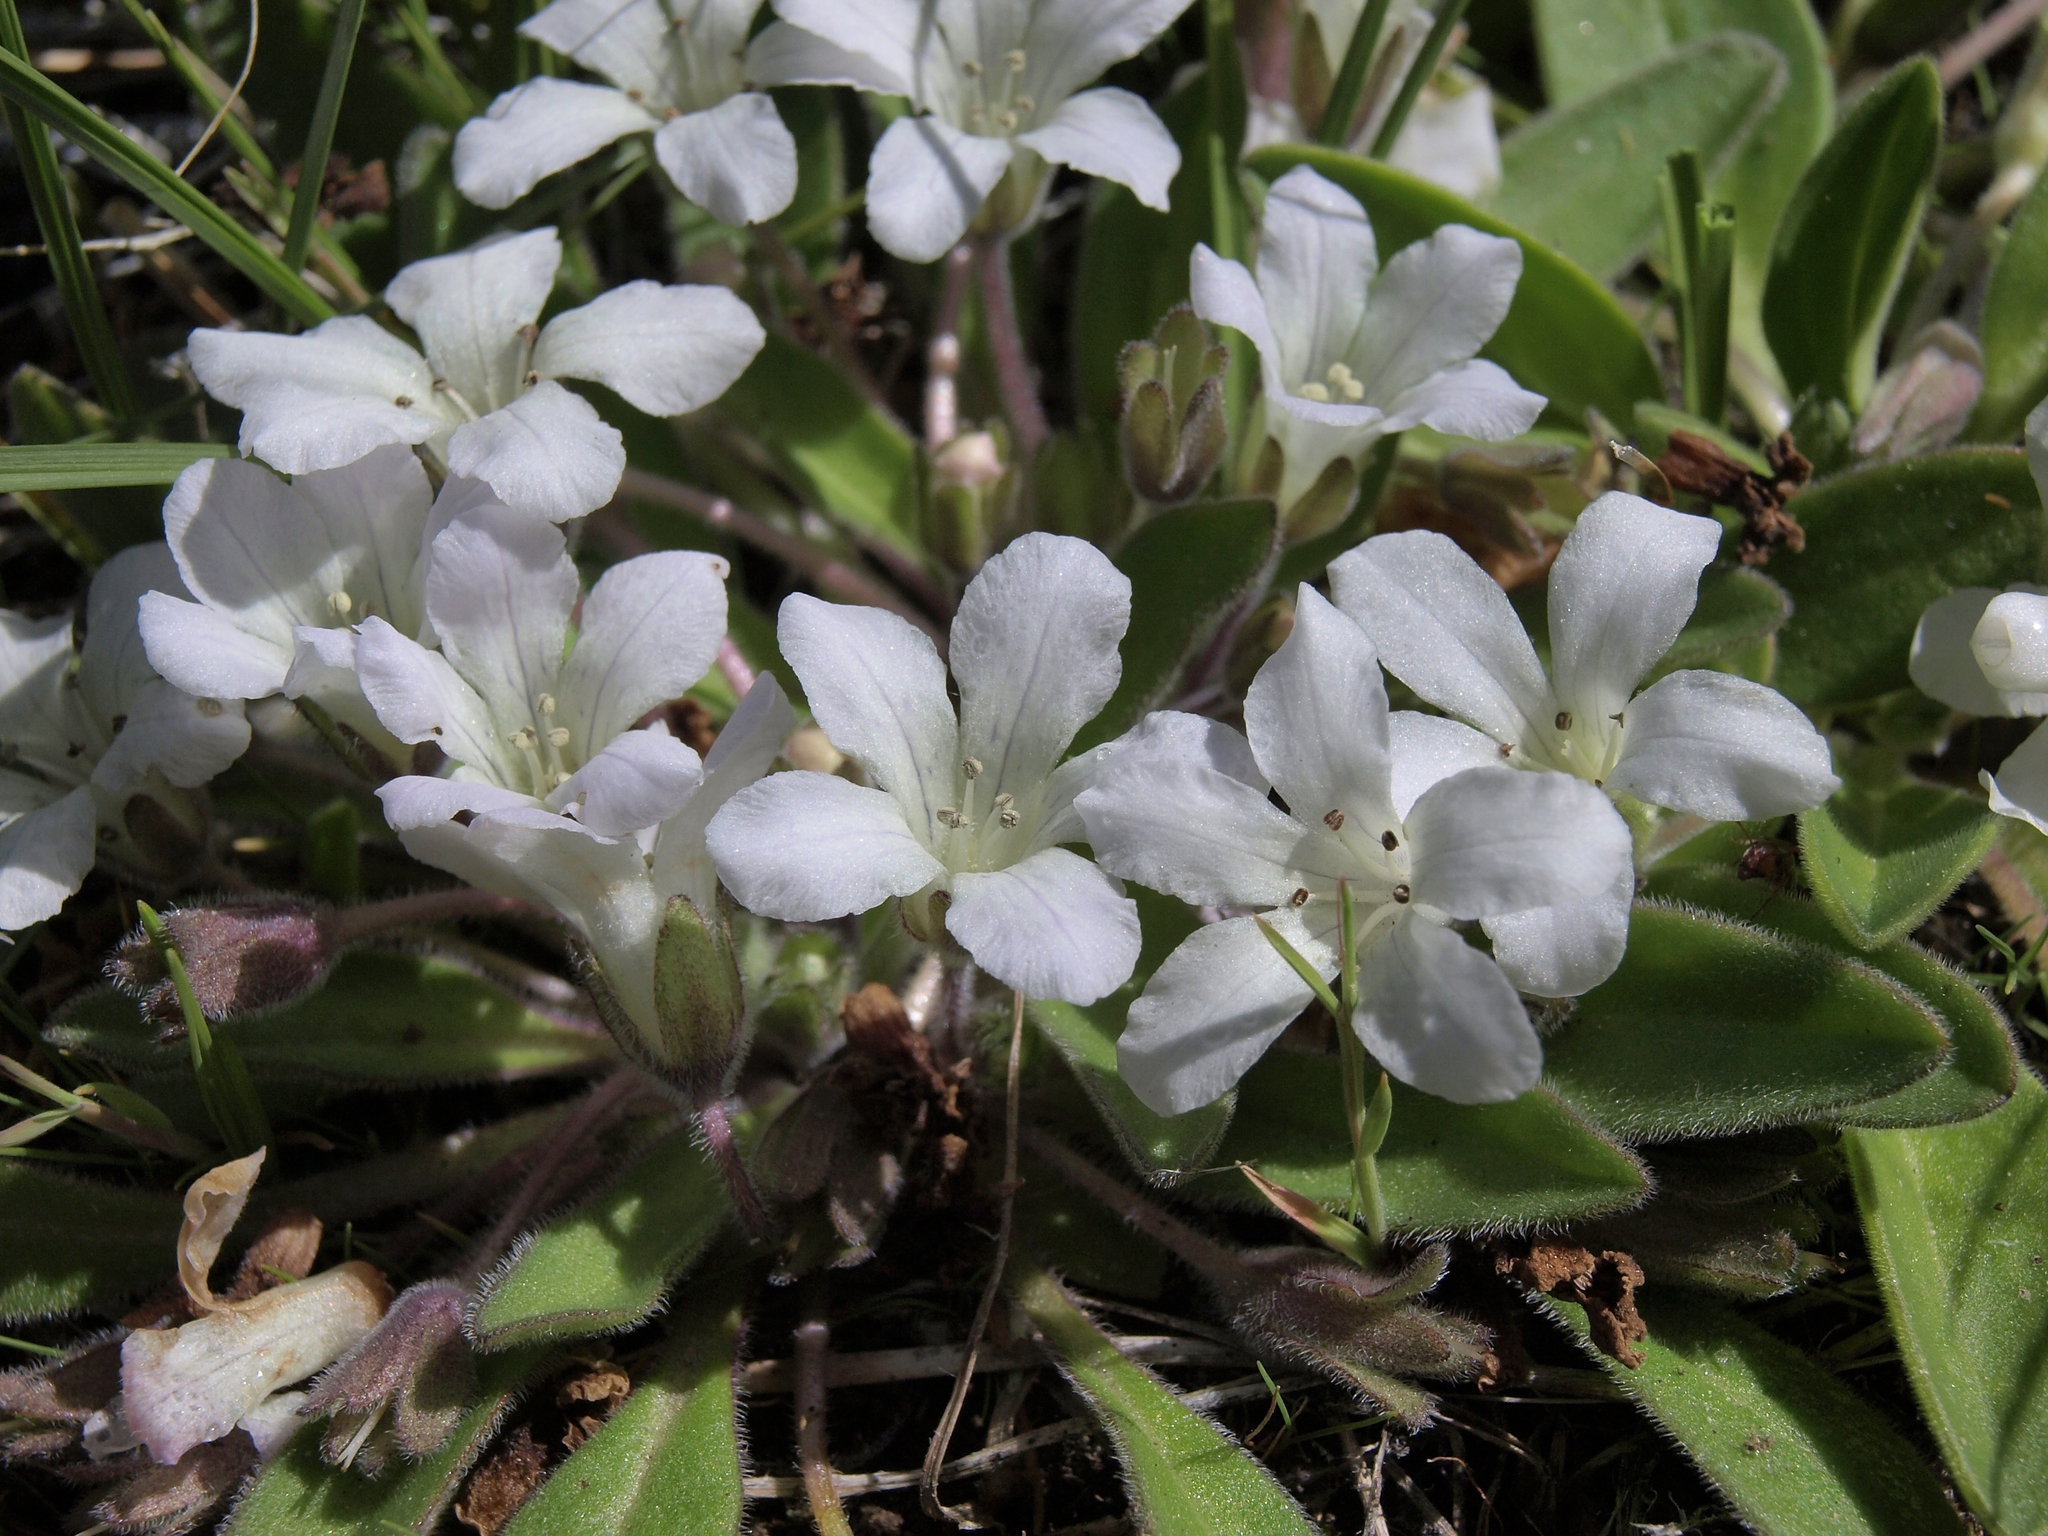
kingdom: Plantae
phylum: Tracheophyta
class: Magnoliopsida
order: Boraginales
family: Hydrophyllaceae
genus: Hesperochiron
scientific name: Hesperochiron californicus
